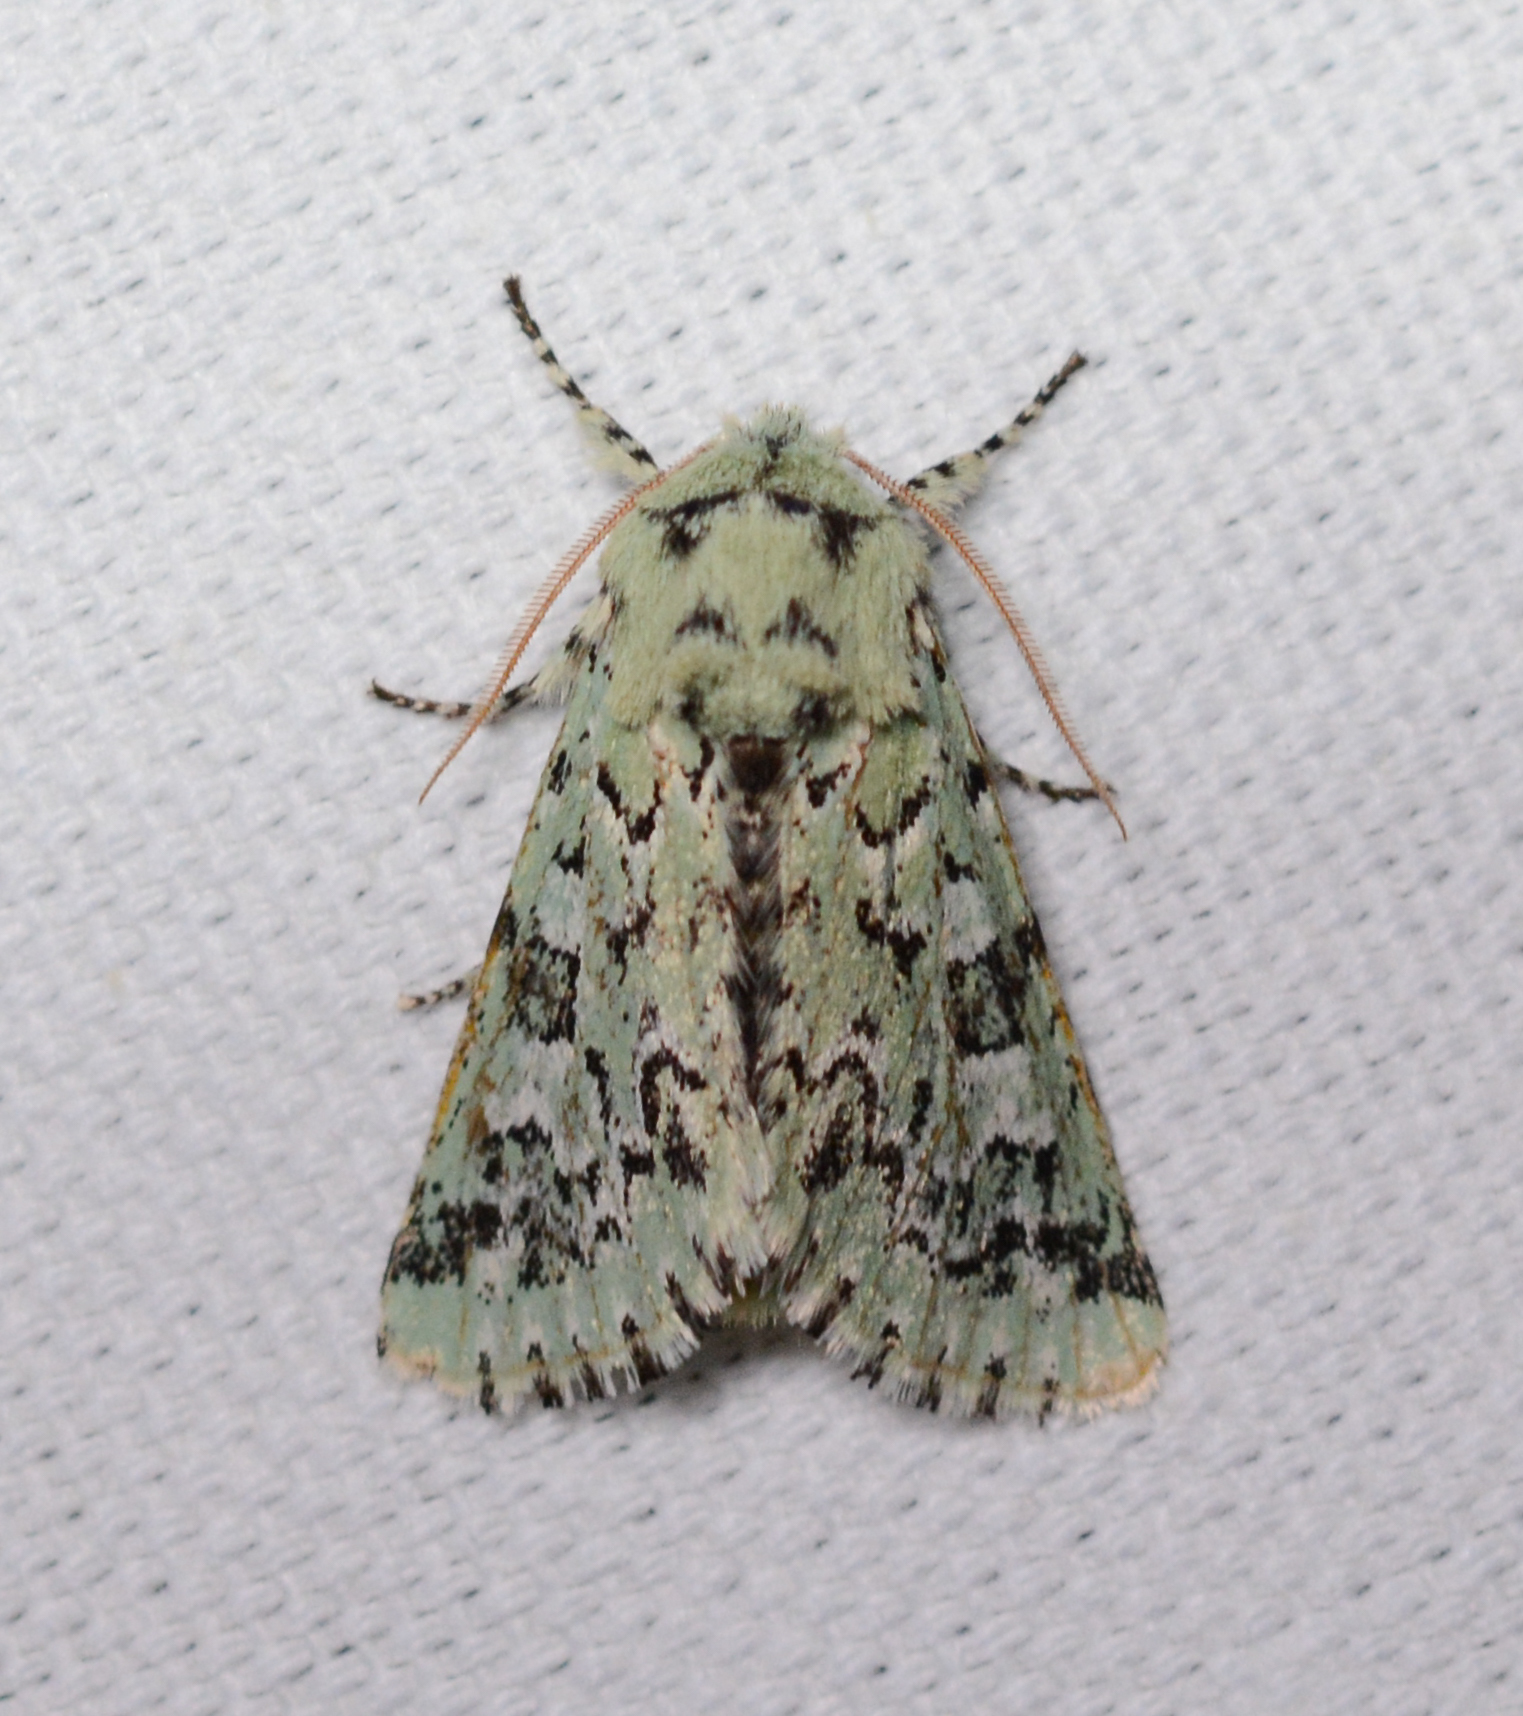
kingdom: Animalia
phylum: Arthropoda
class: Insecta
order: Lepidoptera
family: Noctuidae
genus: Feralia
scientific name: Feralia major
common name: Major sallow
